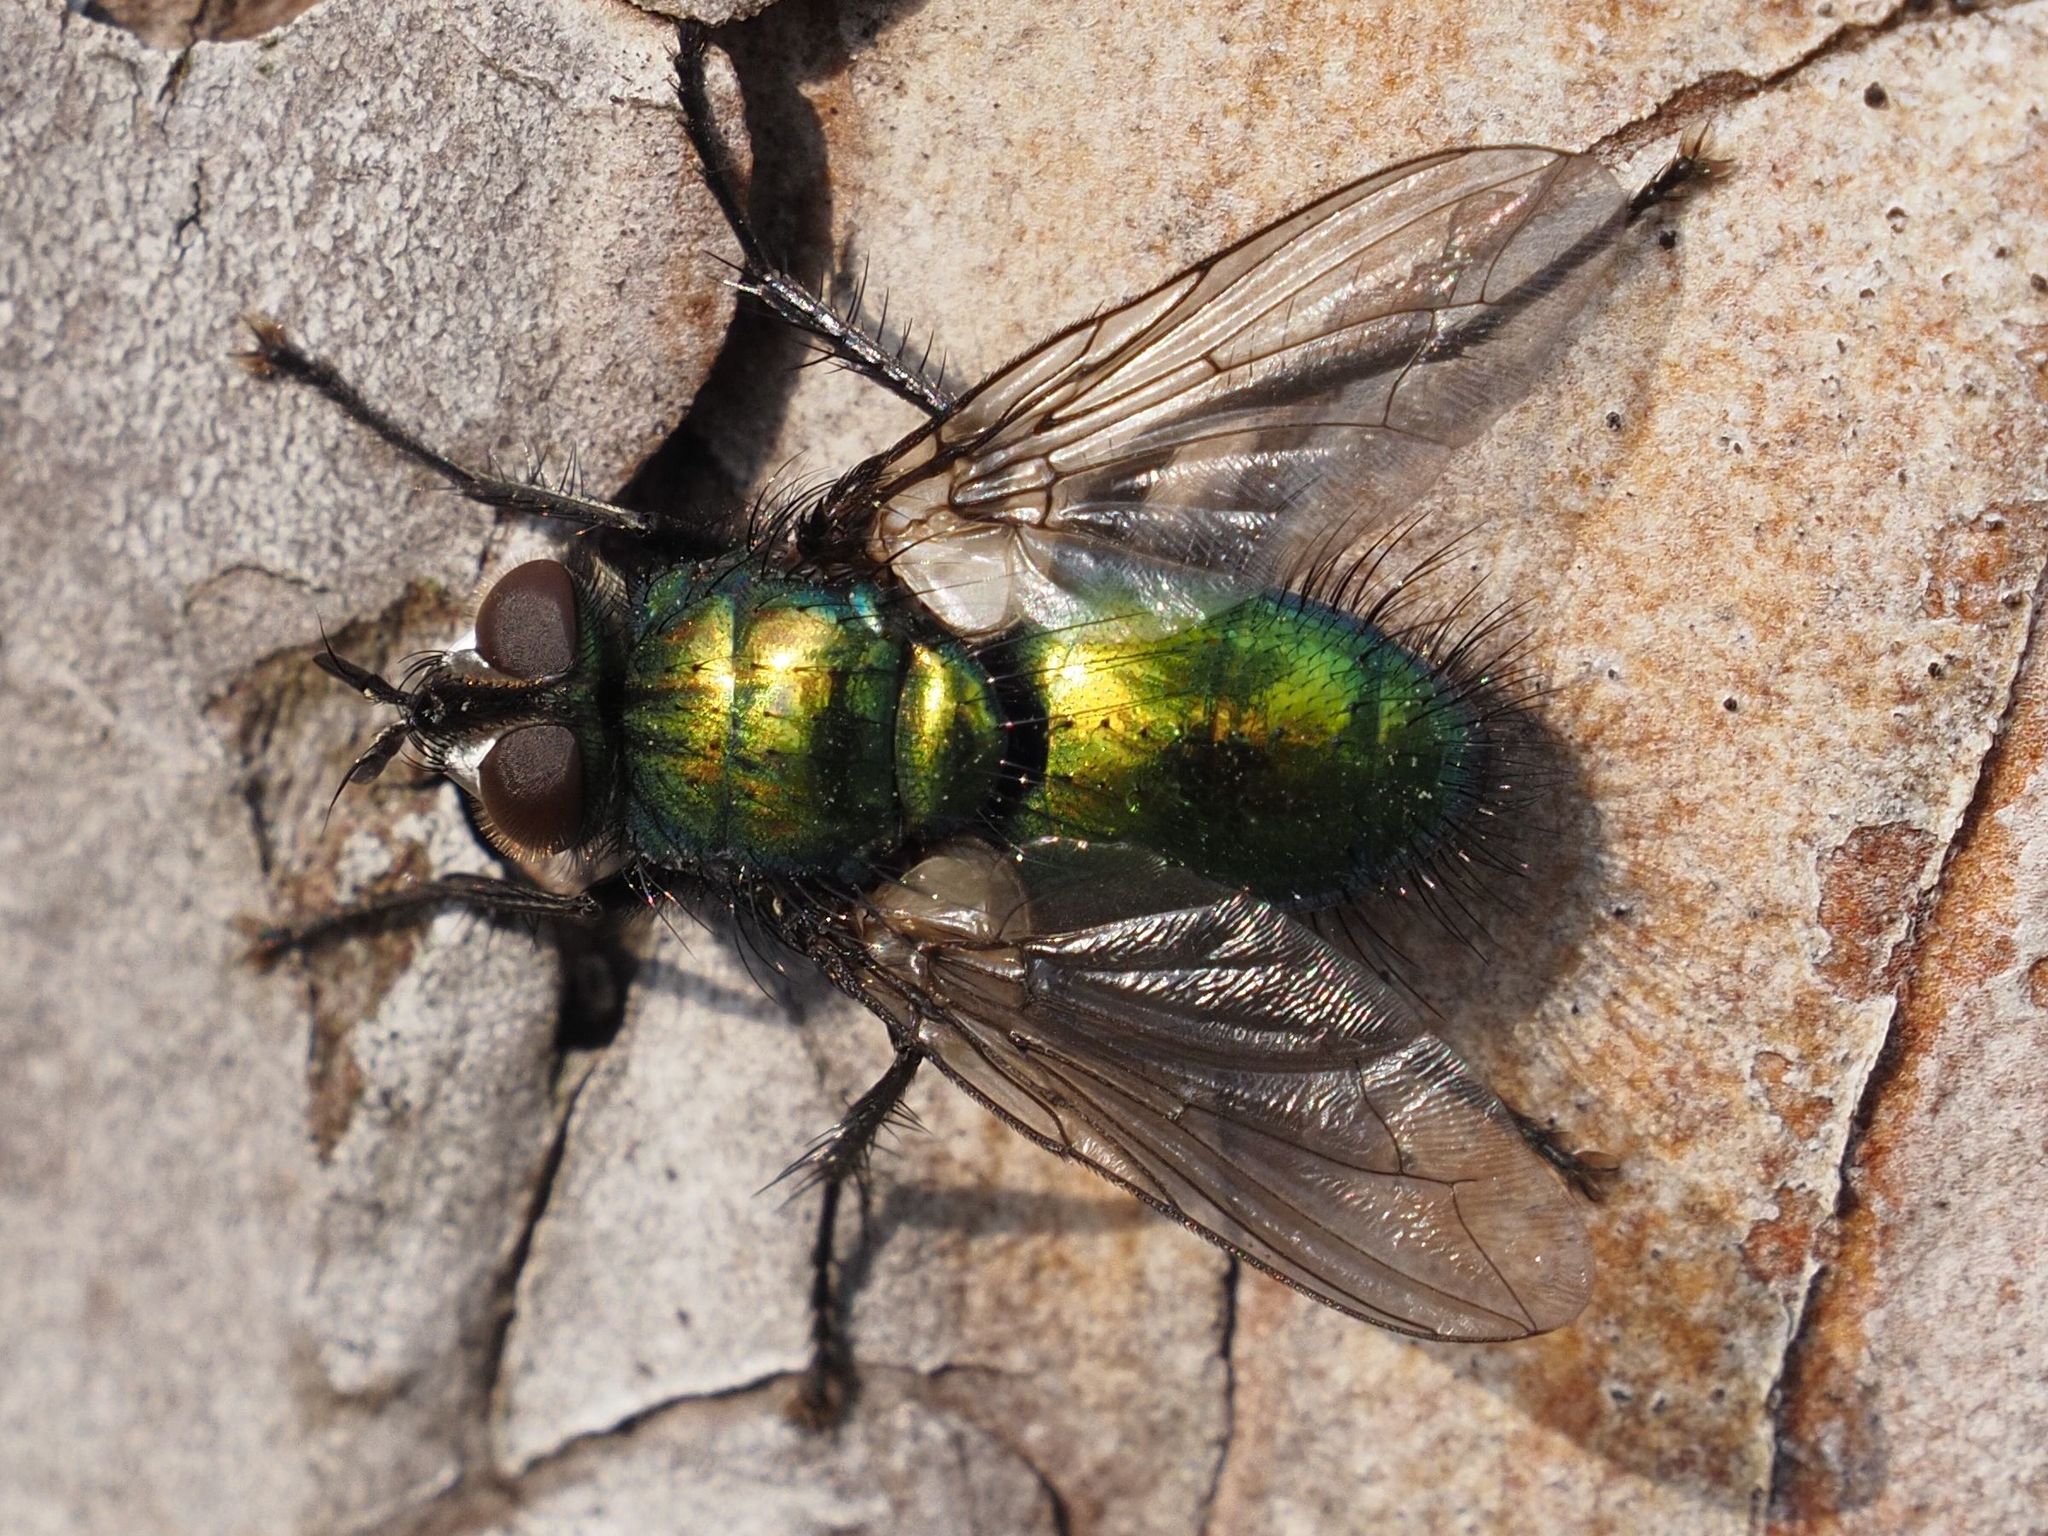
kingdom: Animalia
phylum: Arthropoda
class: Insecta
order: Diptera
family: Tachinidae
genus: Gymnocheta
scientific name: Gymnocheta viridis
